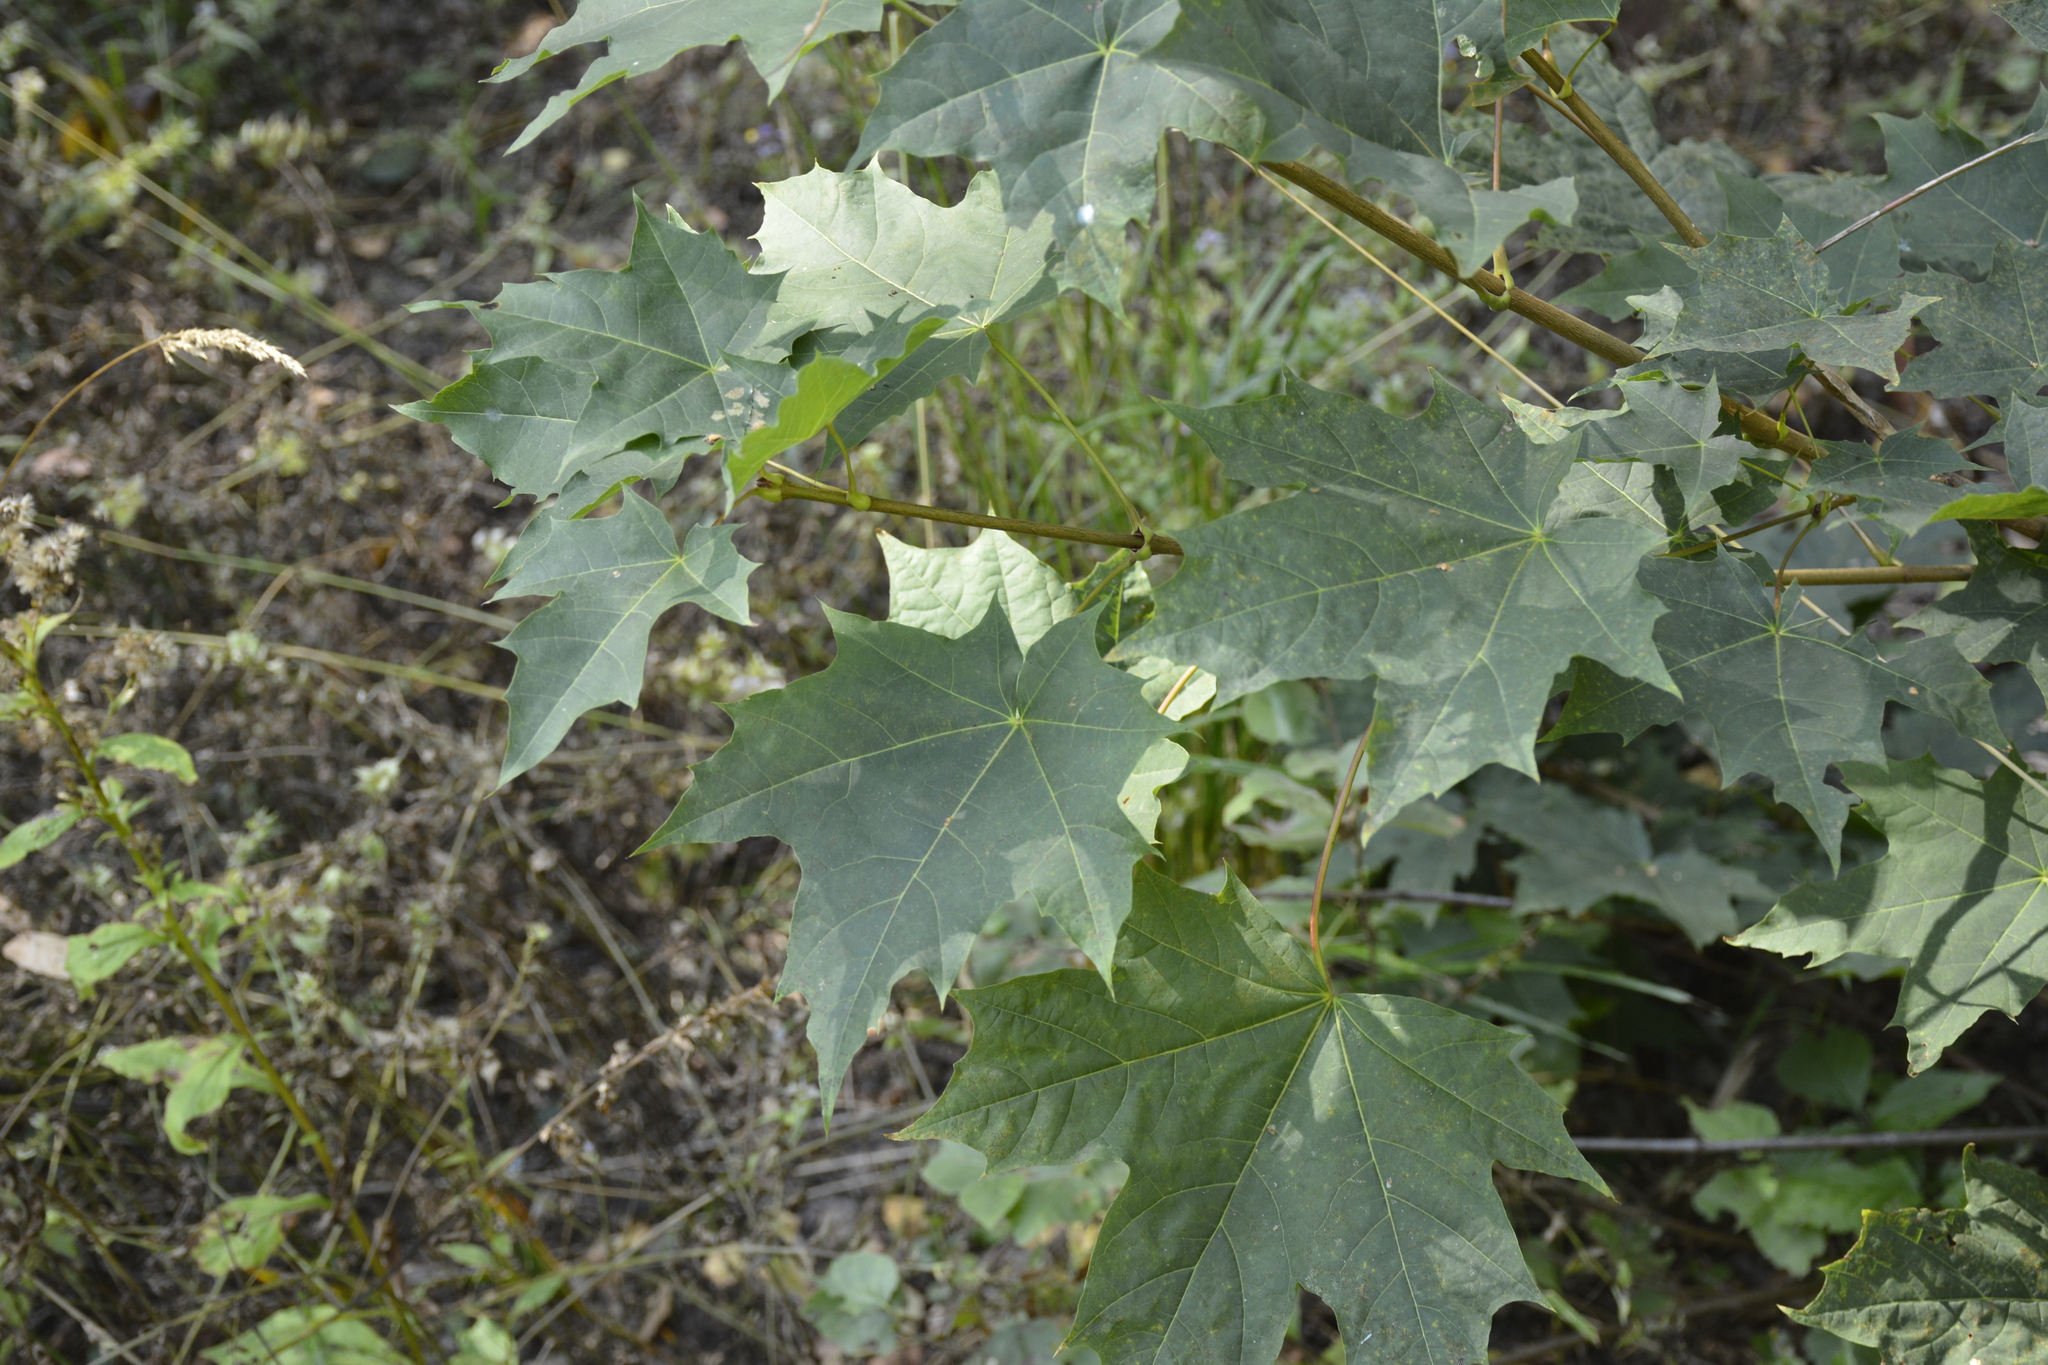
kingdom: Plantae
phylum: Tracheophyta
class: Magnoliopsida
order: Sapindales
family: Sapindaceae
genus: Acer
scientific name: Acer platanoides
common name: Norway maple
